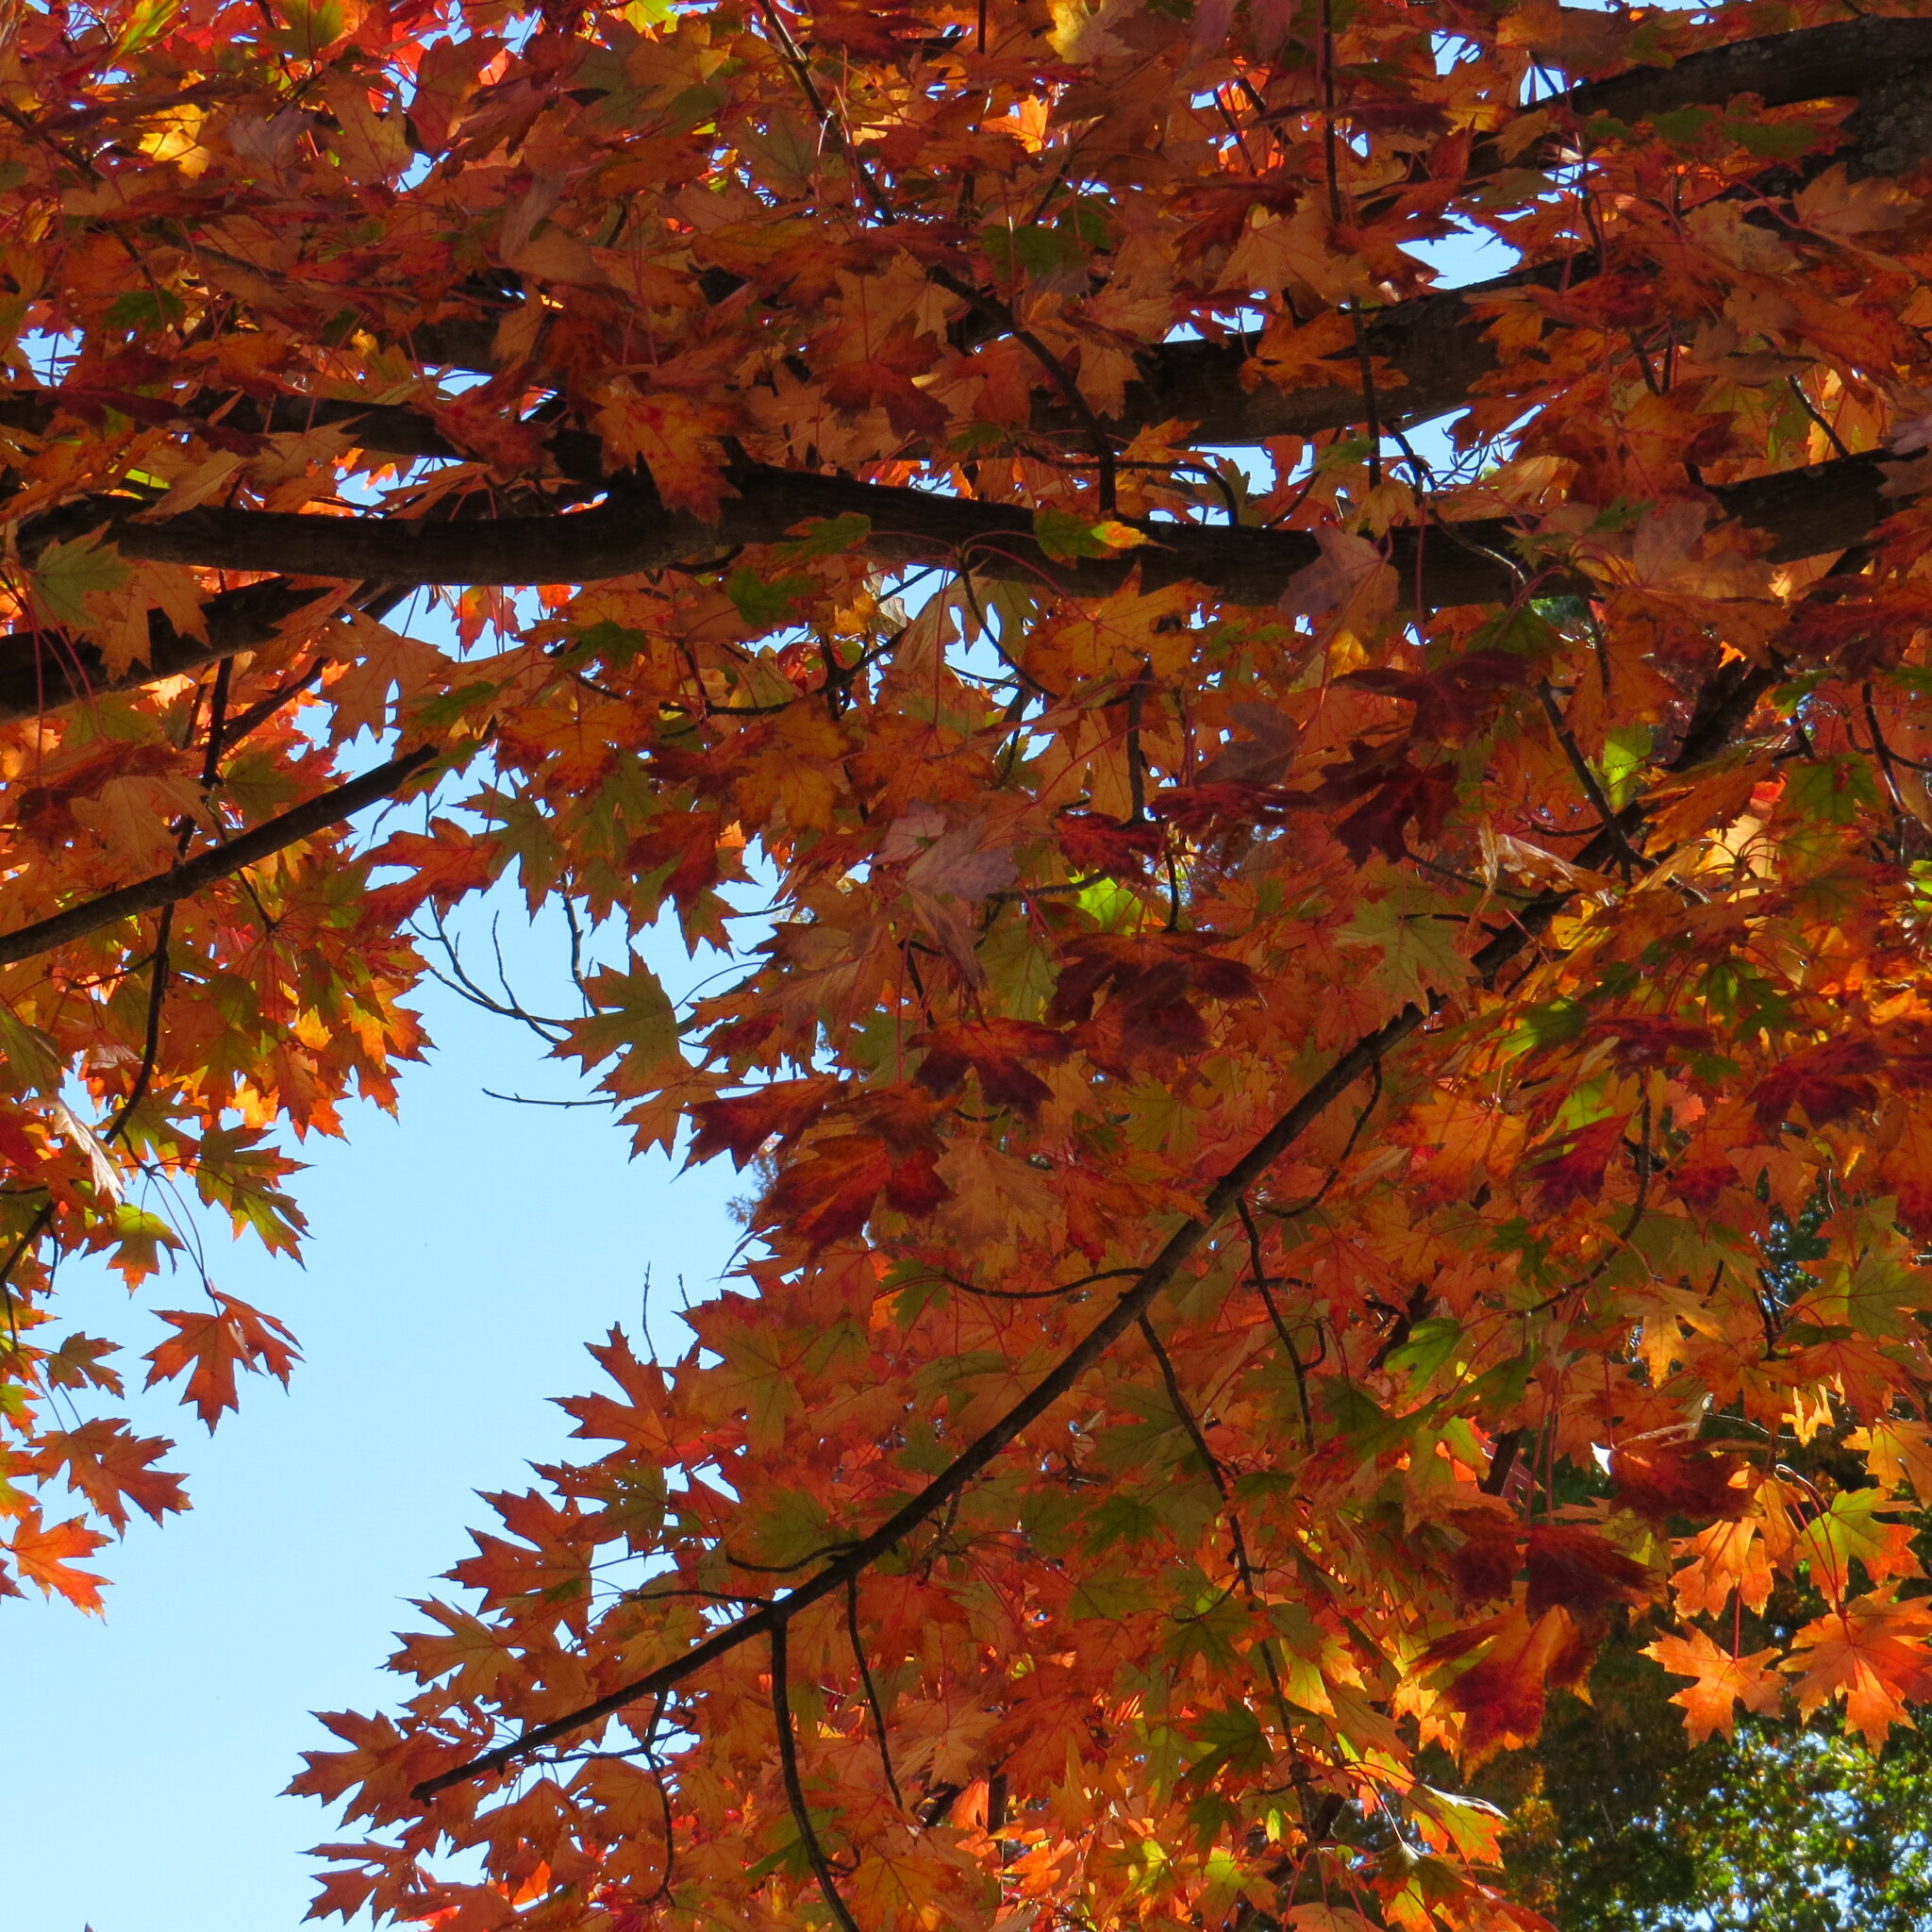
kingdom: Plantae
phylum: Tracheophyta
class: Magnoliopsida
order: Sapindales
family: Sapindaceae
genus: Acer
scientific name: Acer saccharinum
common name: Silver maple
